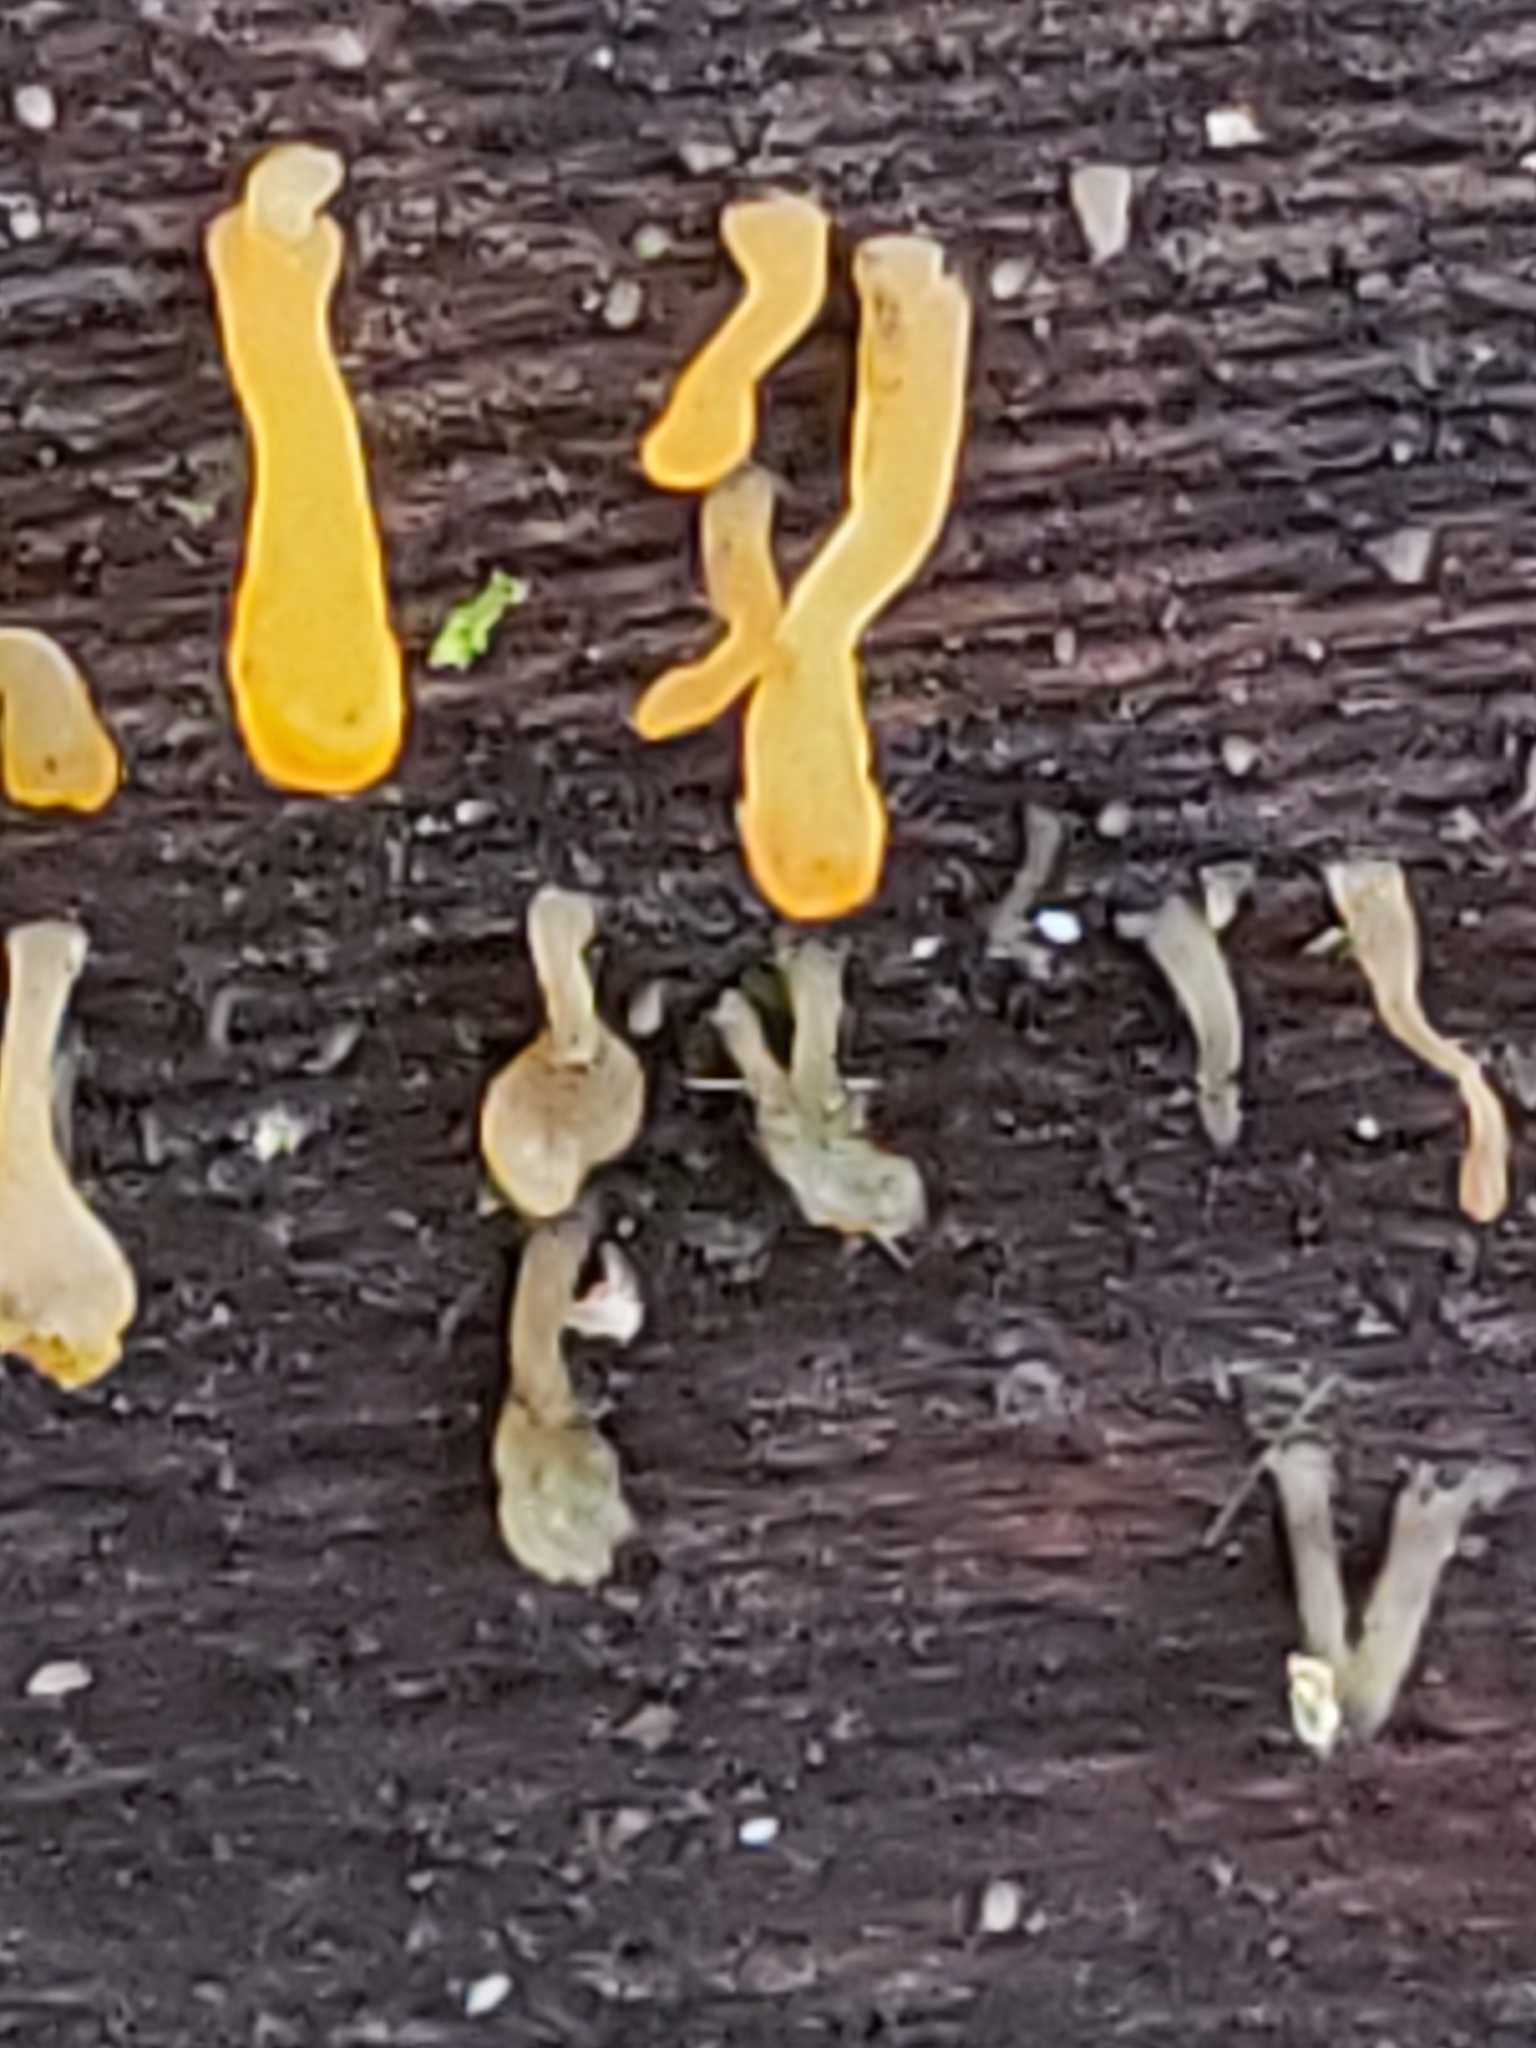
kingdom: Fungi
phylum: Basidiomycota
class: Dacrymycetes
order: Dacrymycetales
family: Dacrymycetaceae
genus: Dacrymyces
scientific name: Dacrymyces spathularius
